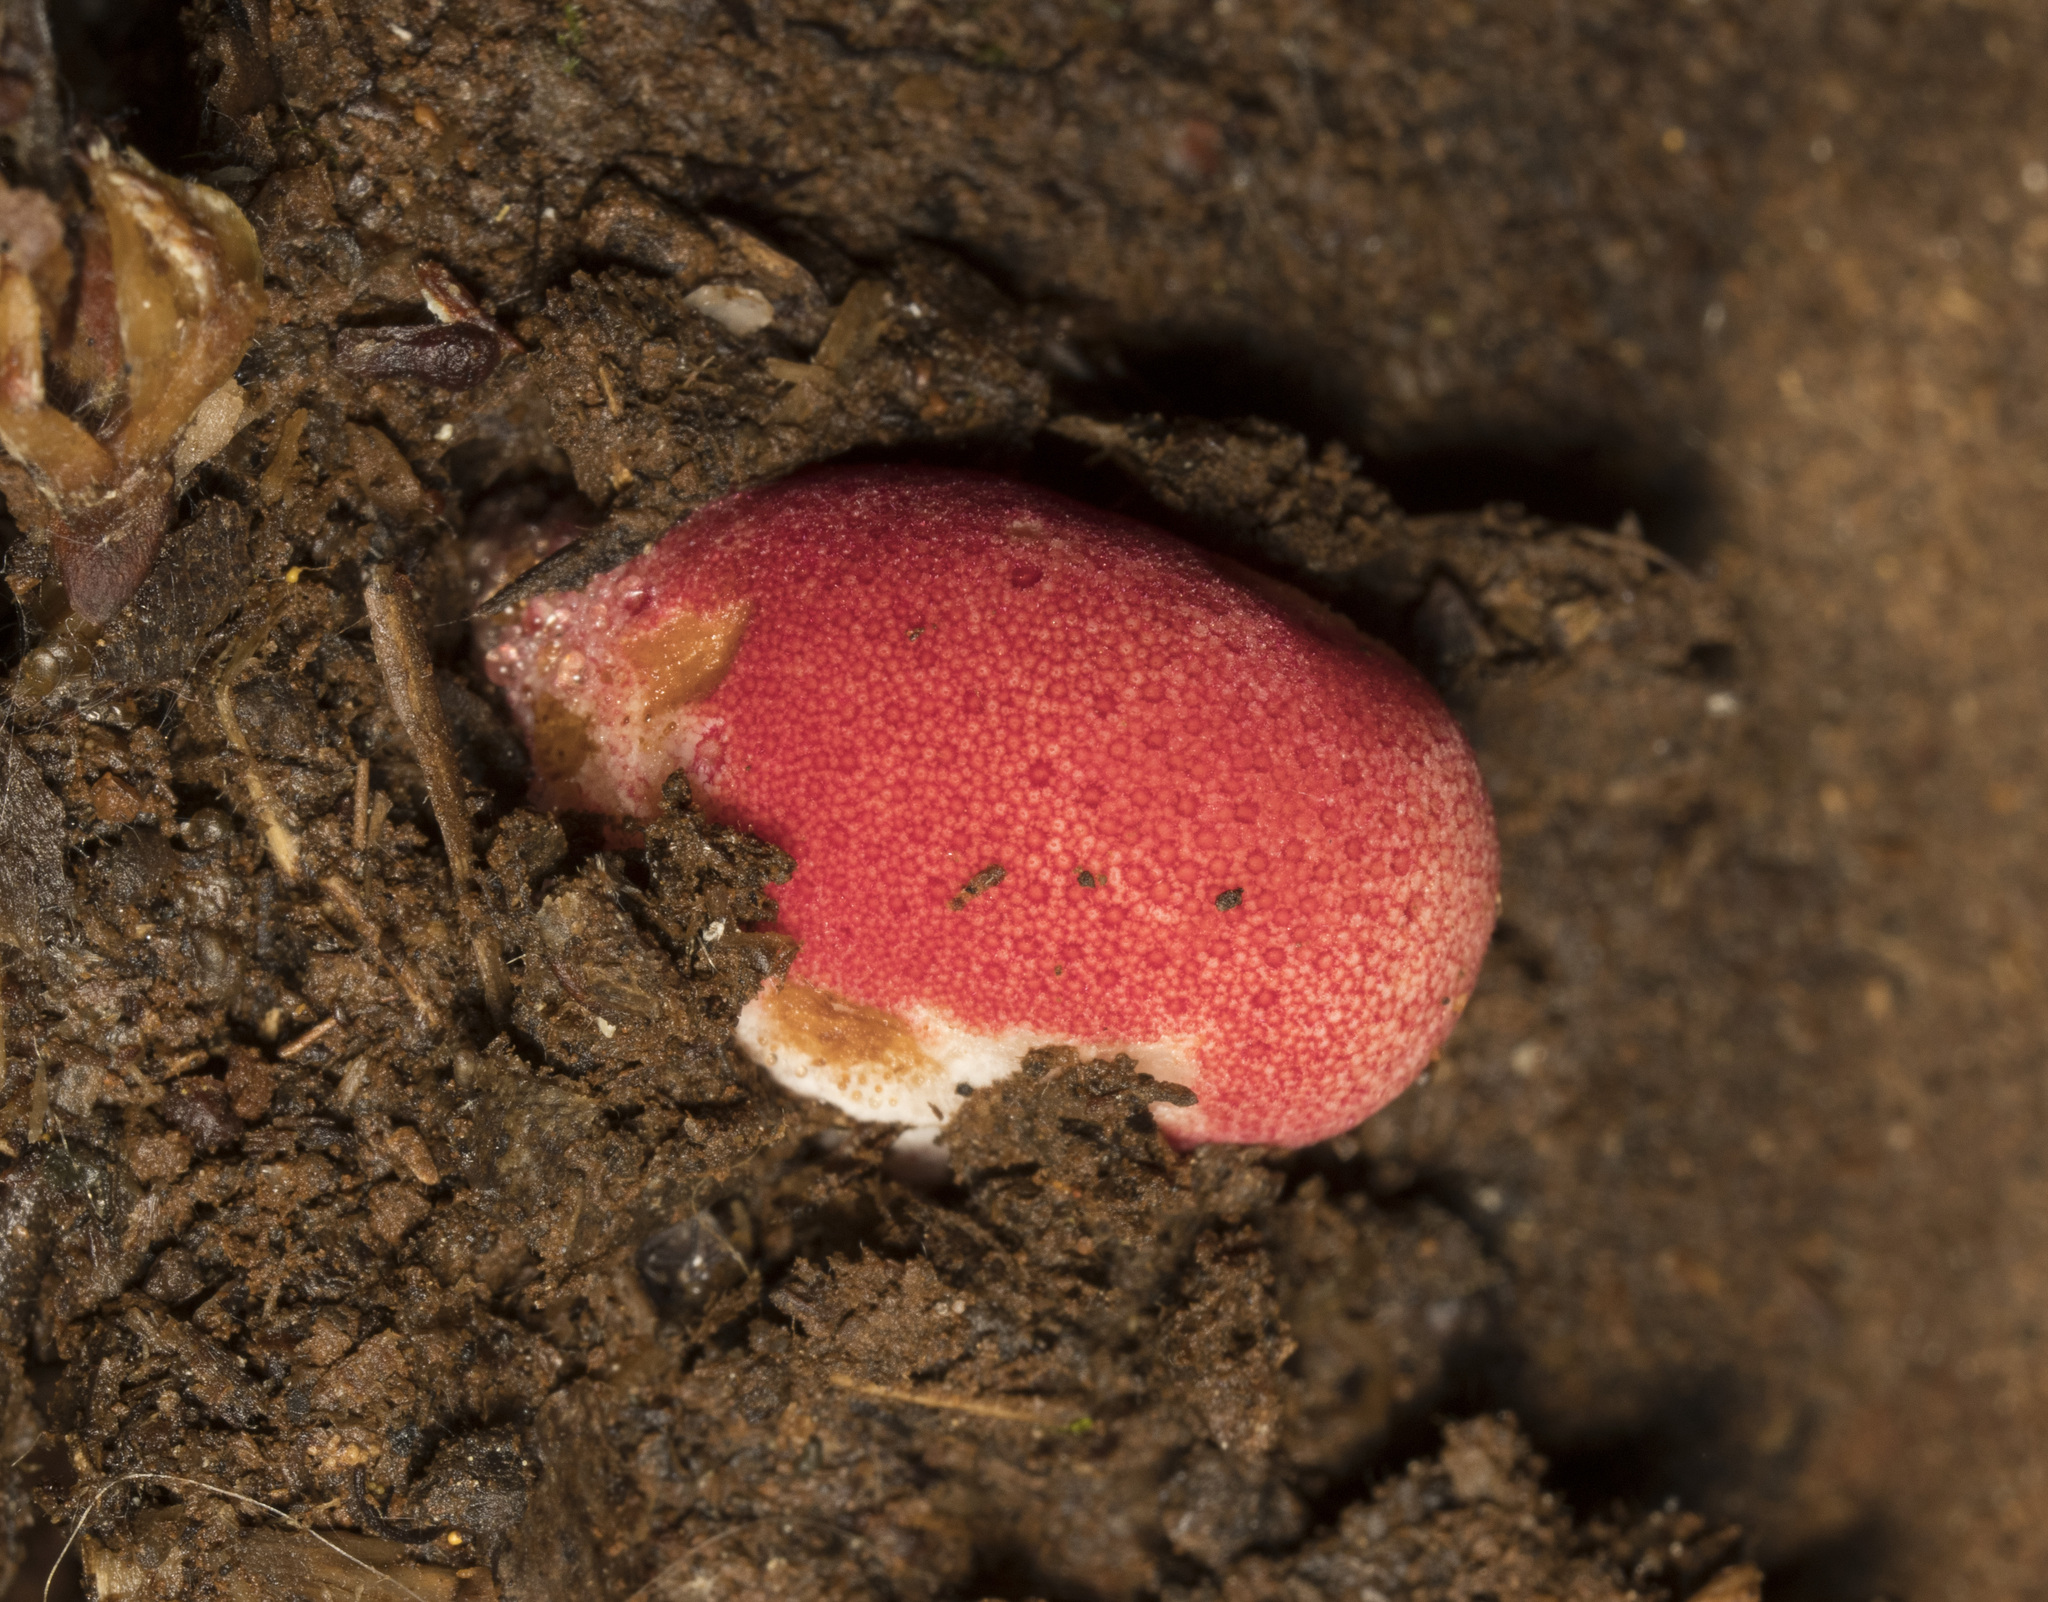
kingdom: Fungi
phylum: Basidiomycota
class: Agaricomycetes
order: Agaricales
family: Fistulinaceae
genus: Fistulina
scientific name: Fistulina antarctica
